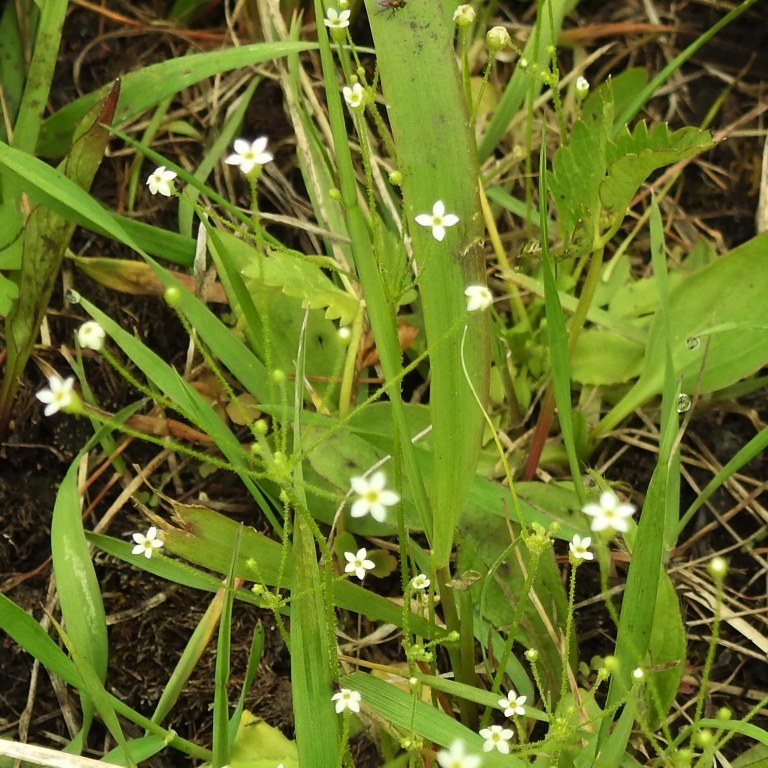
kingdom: Plantae
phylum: Tracheophyta
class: Magnoliopsida
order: Ericales
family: Primulaceae
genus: Androsace
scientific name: Androsace filiformis
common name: Filiform rock jasmine
